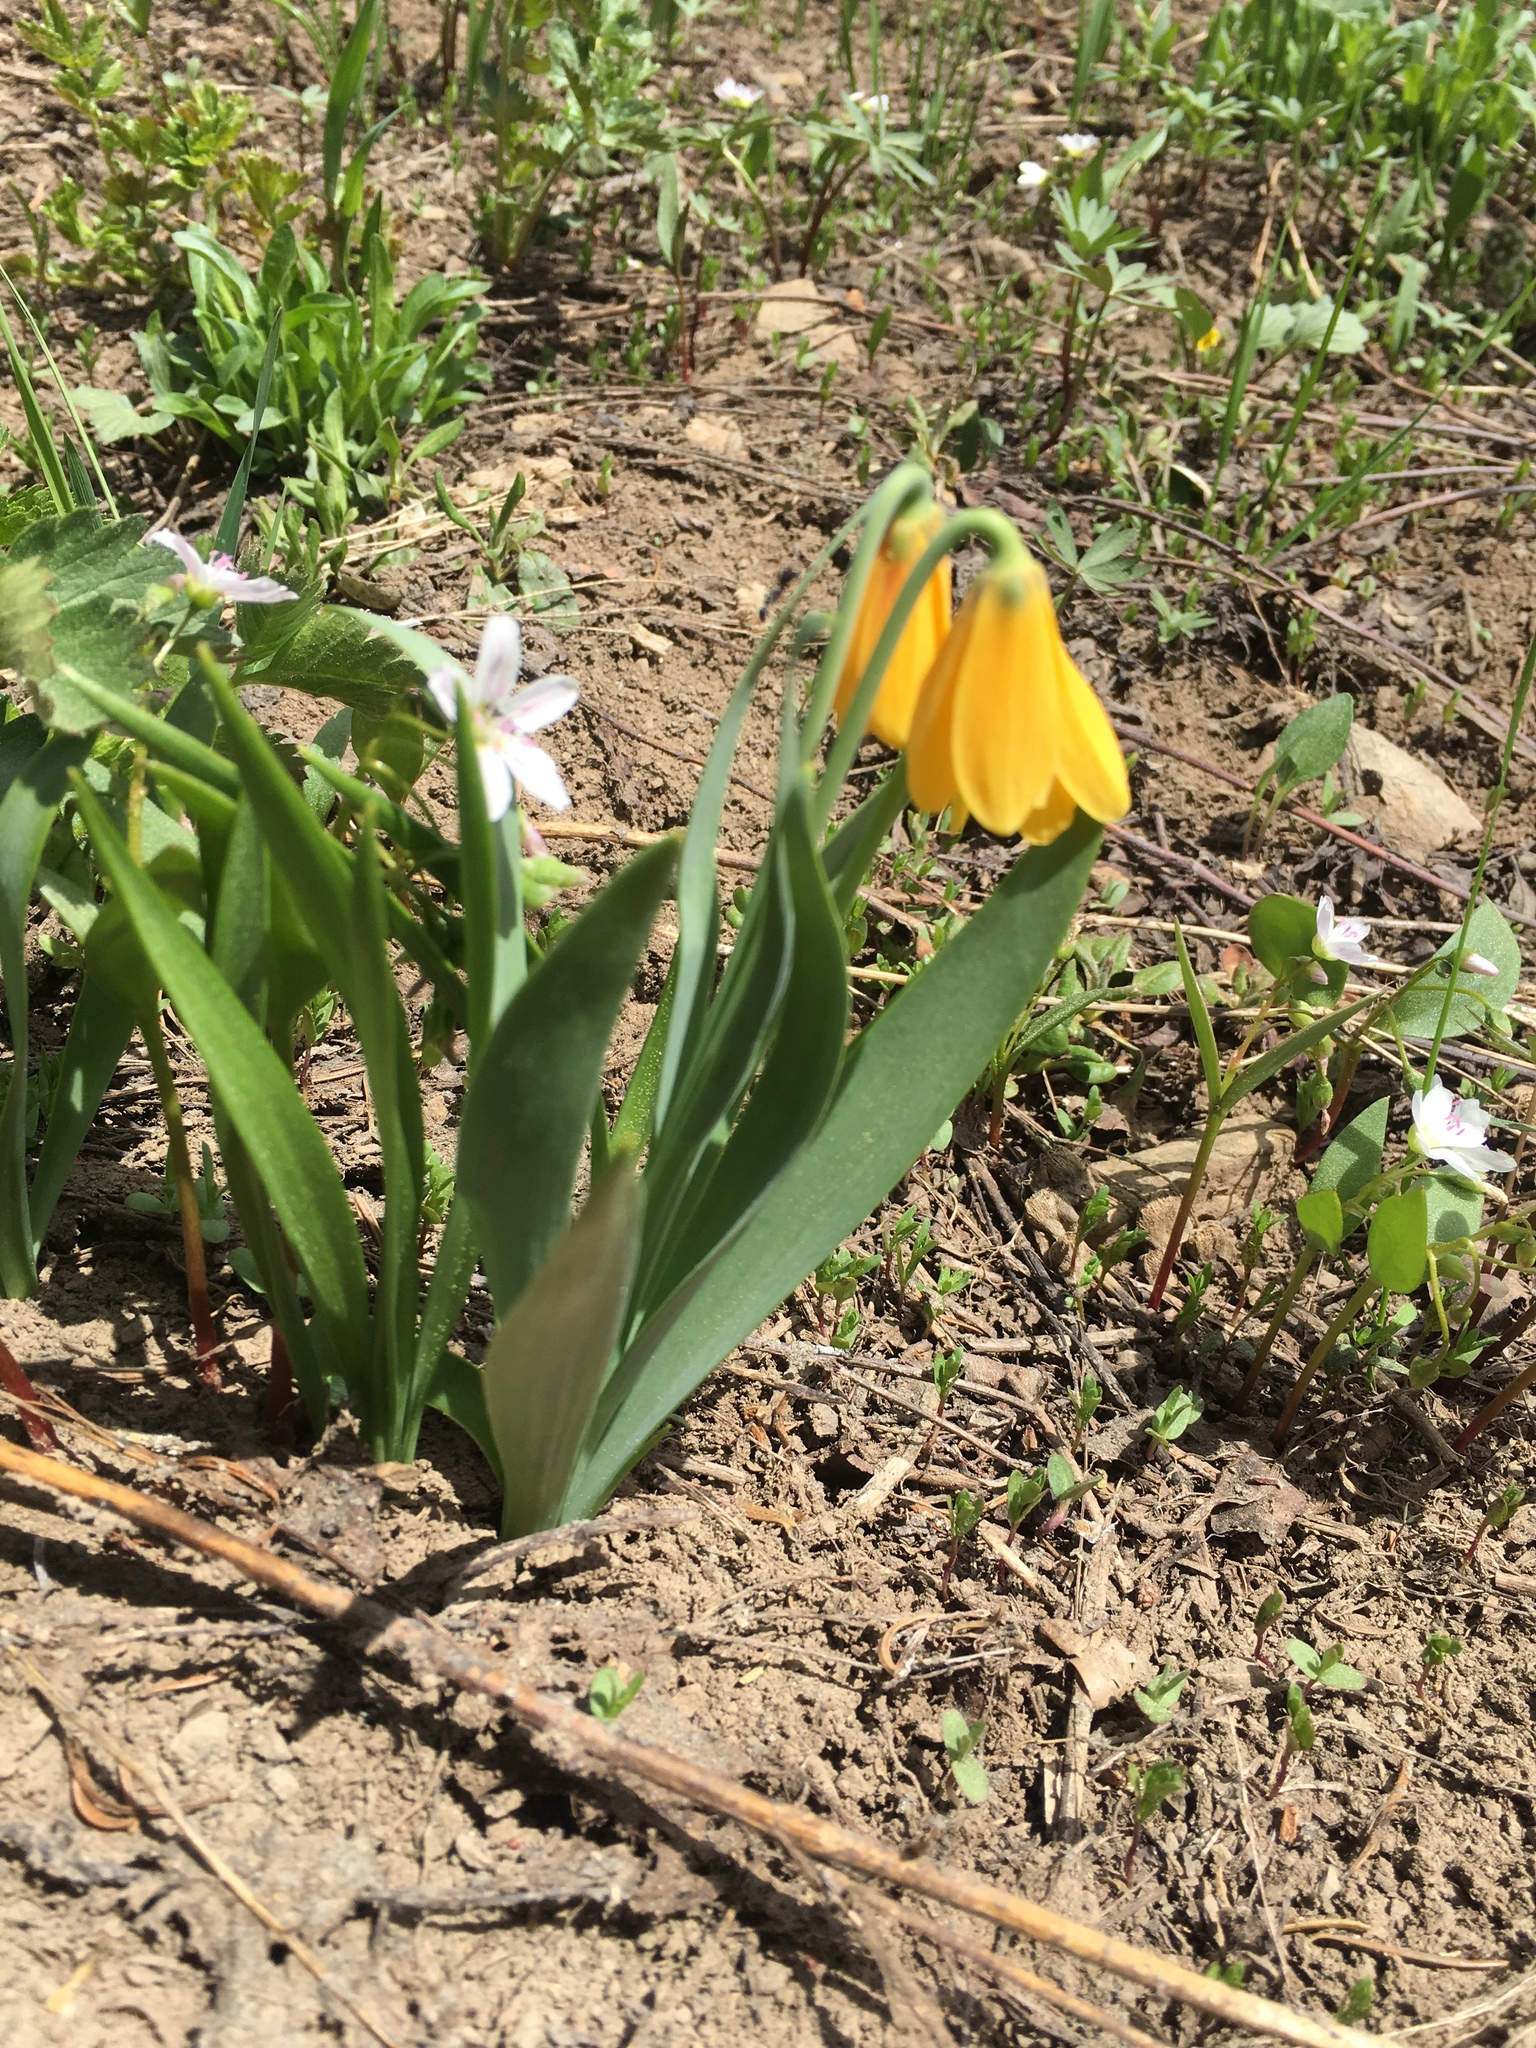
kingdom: Plantae
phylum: Tracheophyta
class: Liliopsida
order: Liliales
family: Liliaceae
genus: Fritillaria
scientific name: Fritillaria pudica
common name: Yellow fritillary
